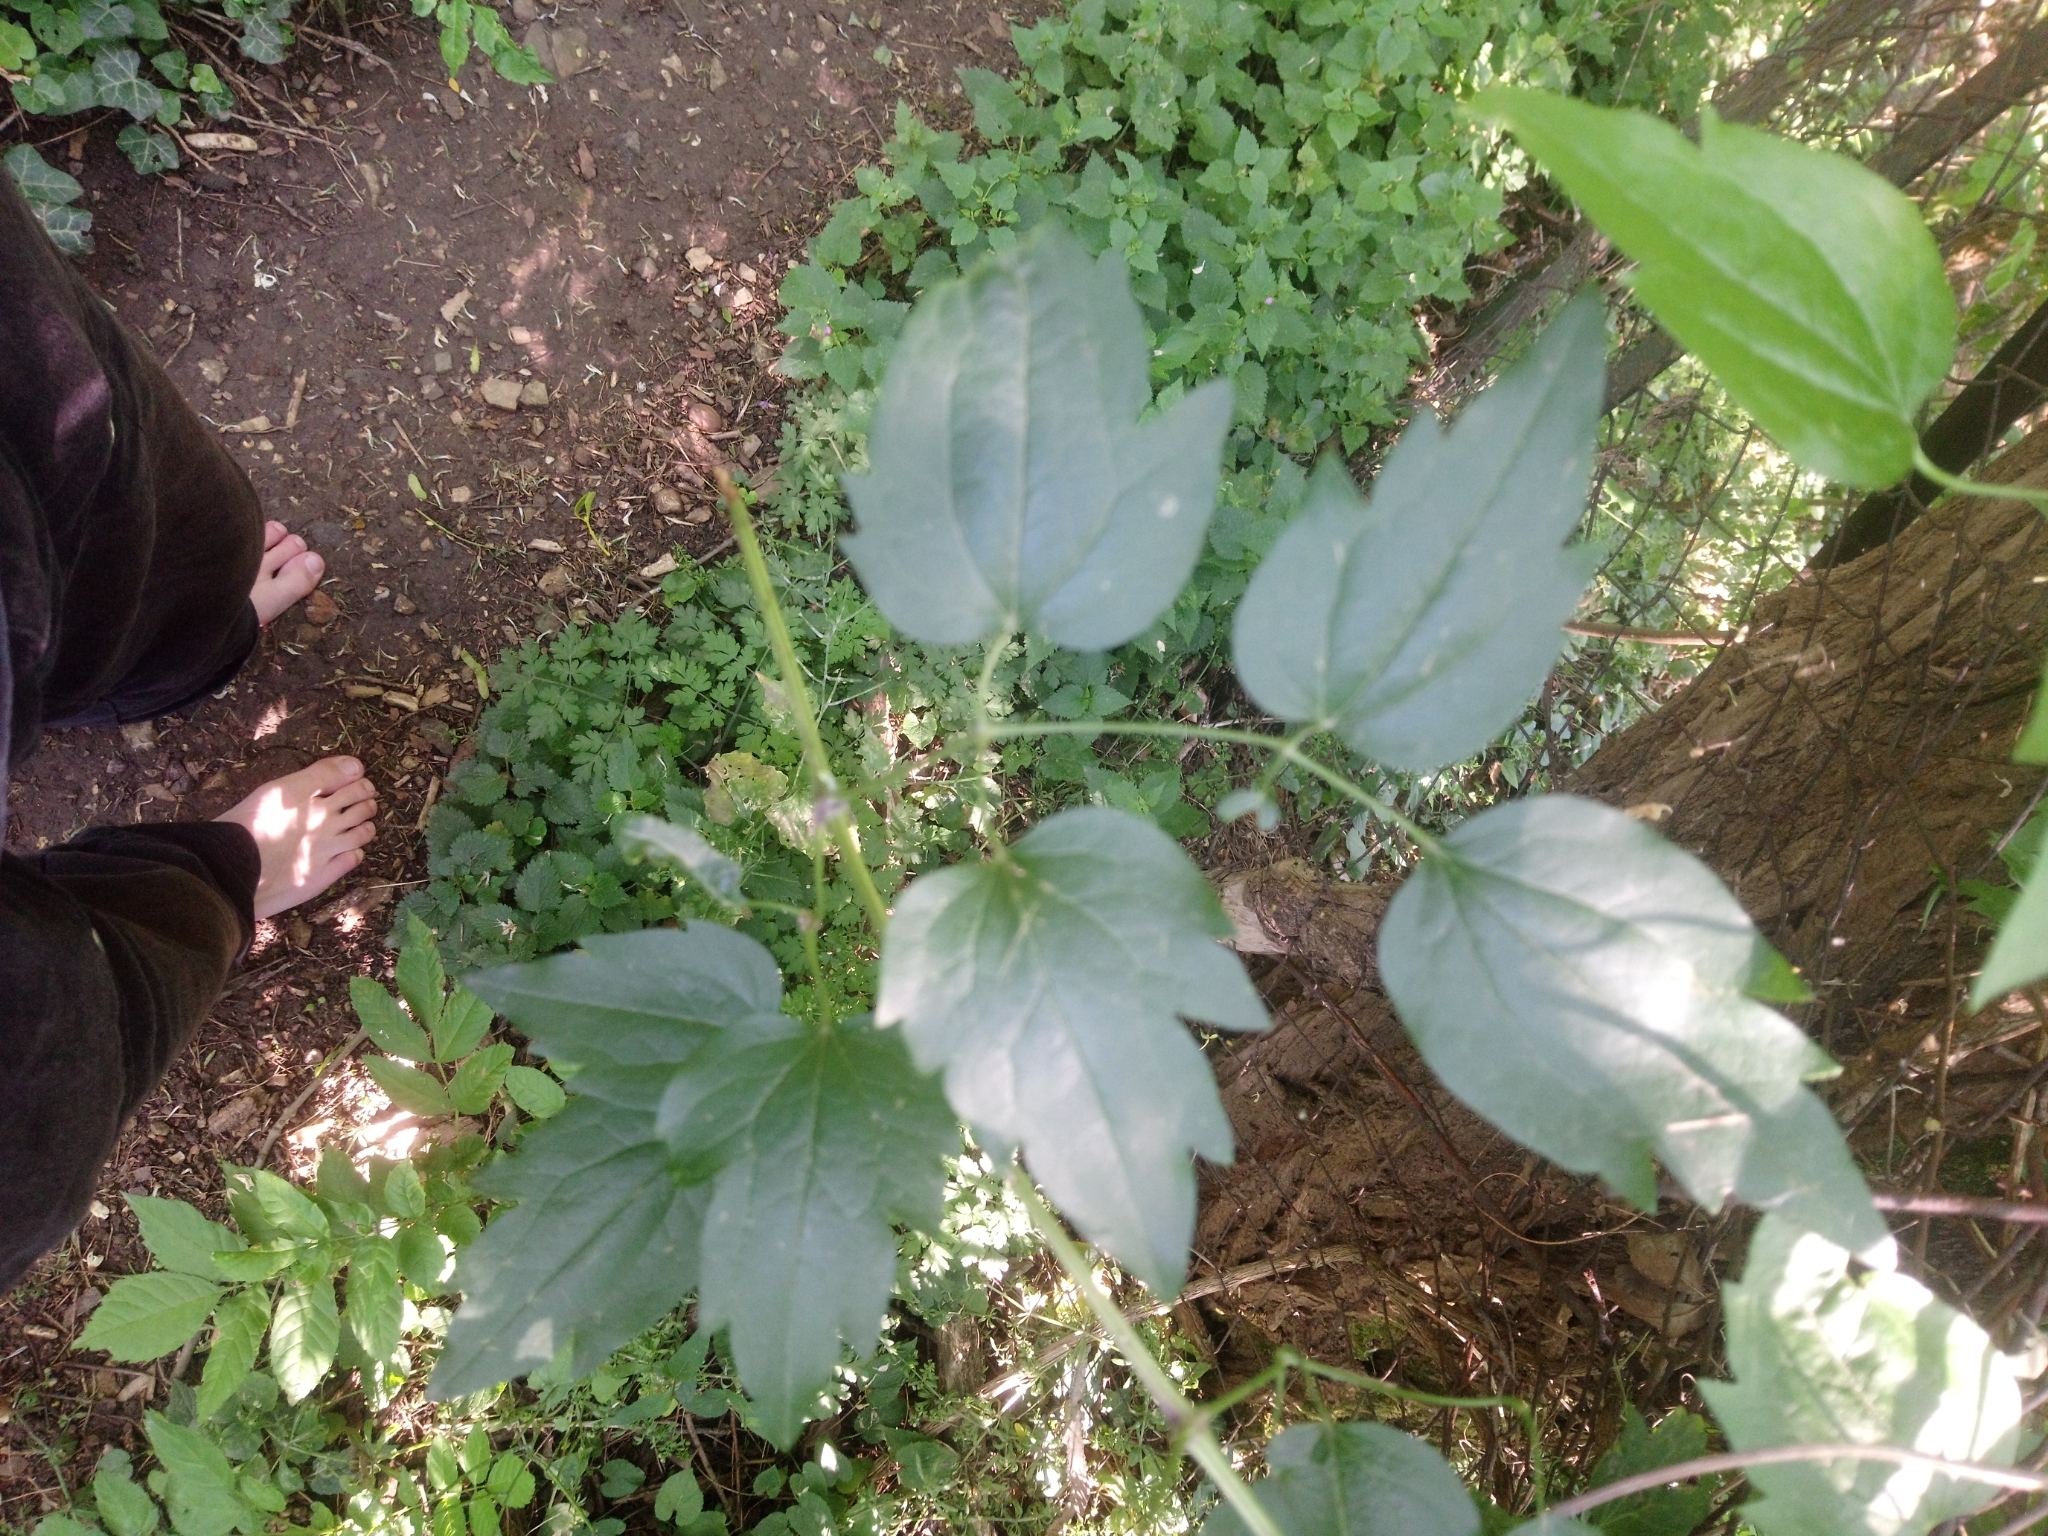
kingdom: Plantae
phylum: Tracheophyta
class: Magnoliopsida
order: Ranunculales
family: Ranunculaceae
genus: Clematis
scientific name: Clematis vitalba
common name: Evergreen clematis
